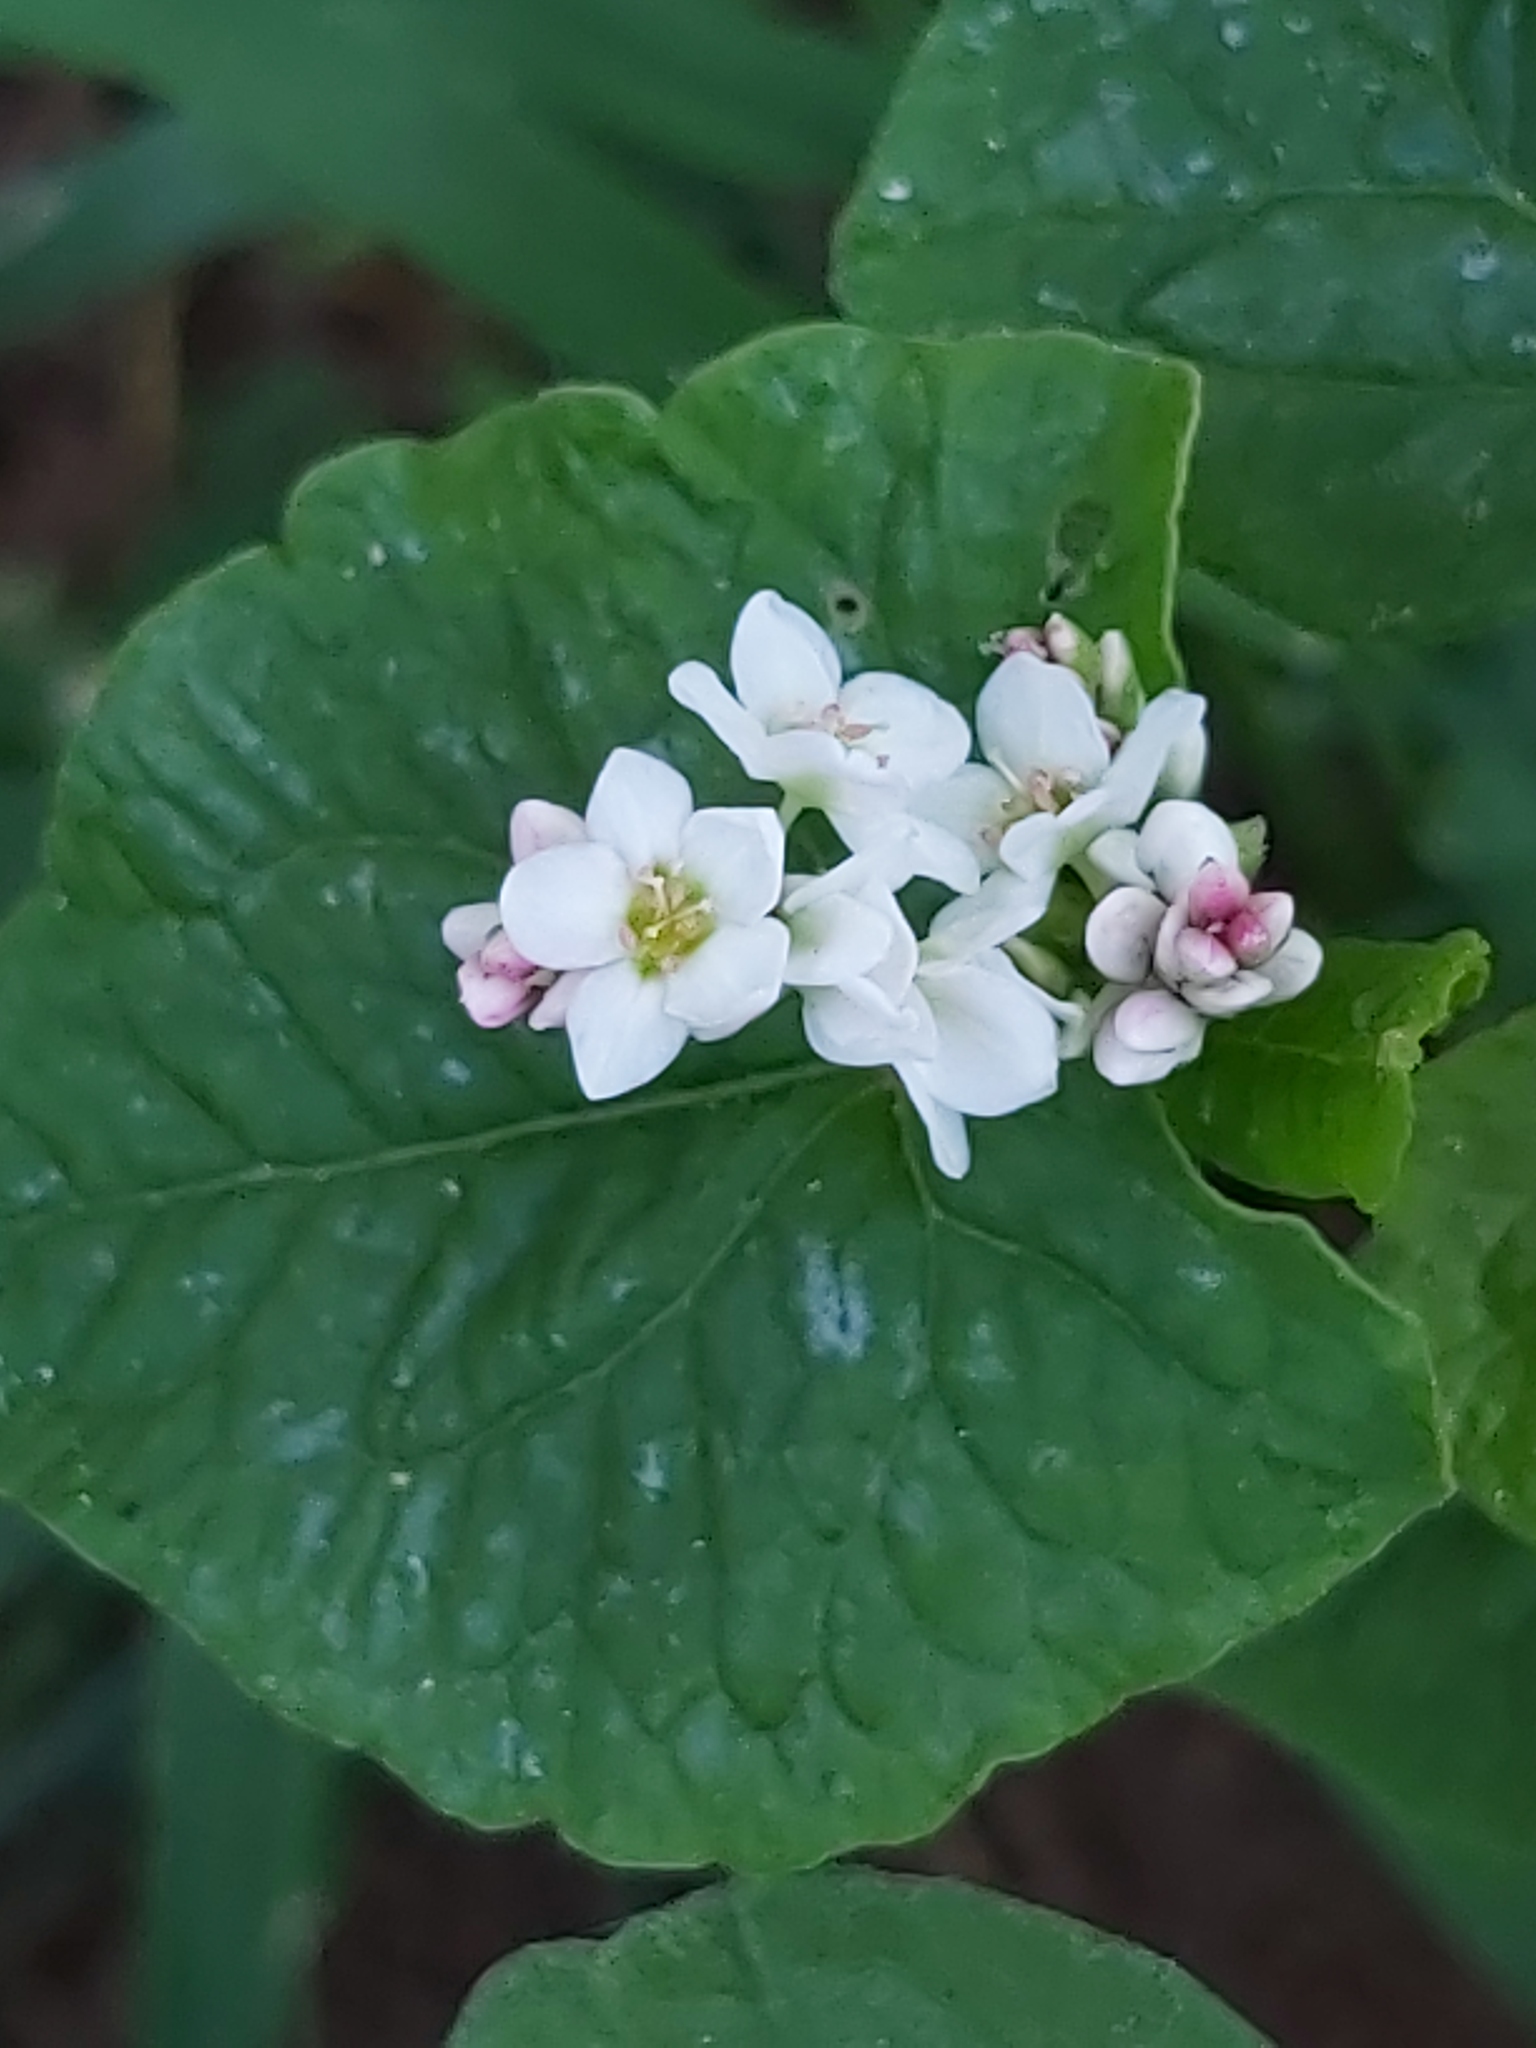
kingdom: Plantae
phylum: Tracheophyta
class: Magnoliopsida
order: Caryophyllales
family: Polygonaceae
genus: Fagopyrum
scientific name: Fagopyrum esculentum
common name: Buckwheat
